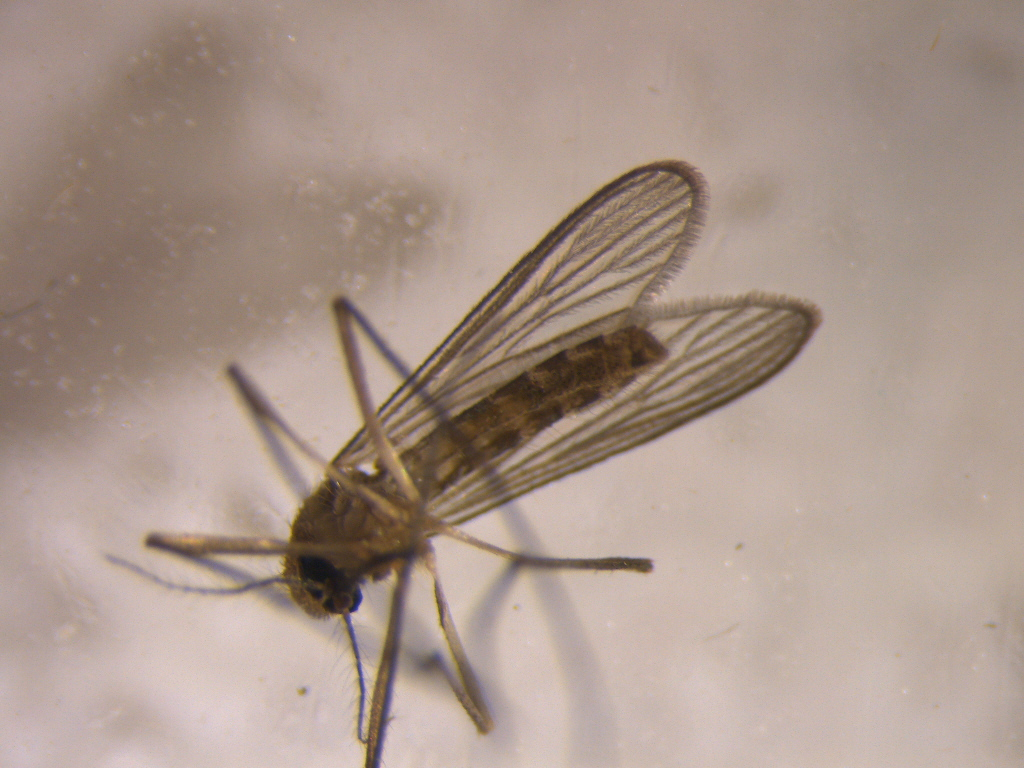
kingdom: Animalia
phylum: Arthropoda
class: Insecta
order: Diptera
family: Culicidae
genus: Culex
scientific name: Culex quinquefasciatus
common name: Southern house mosquito
